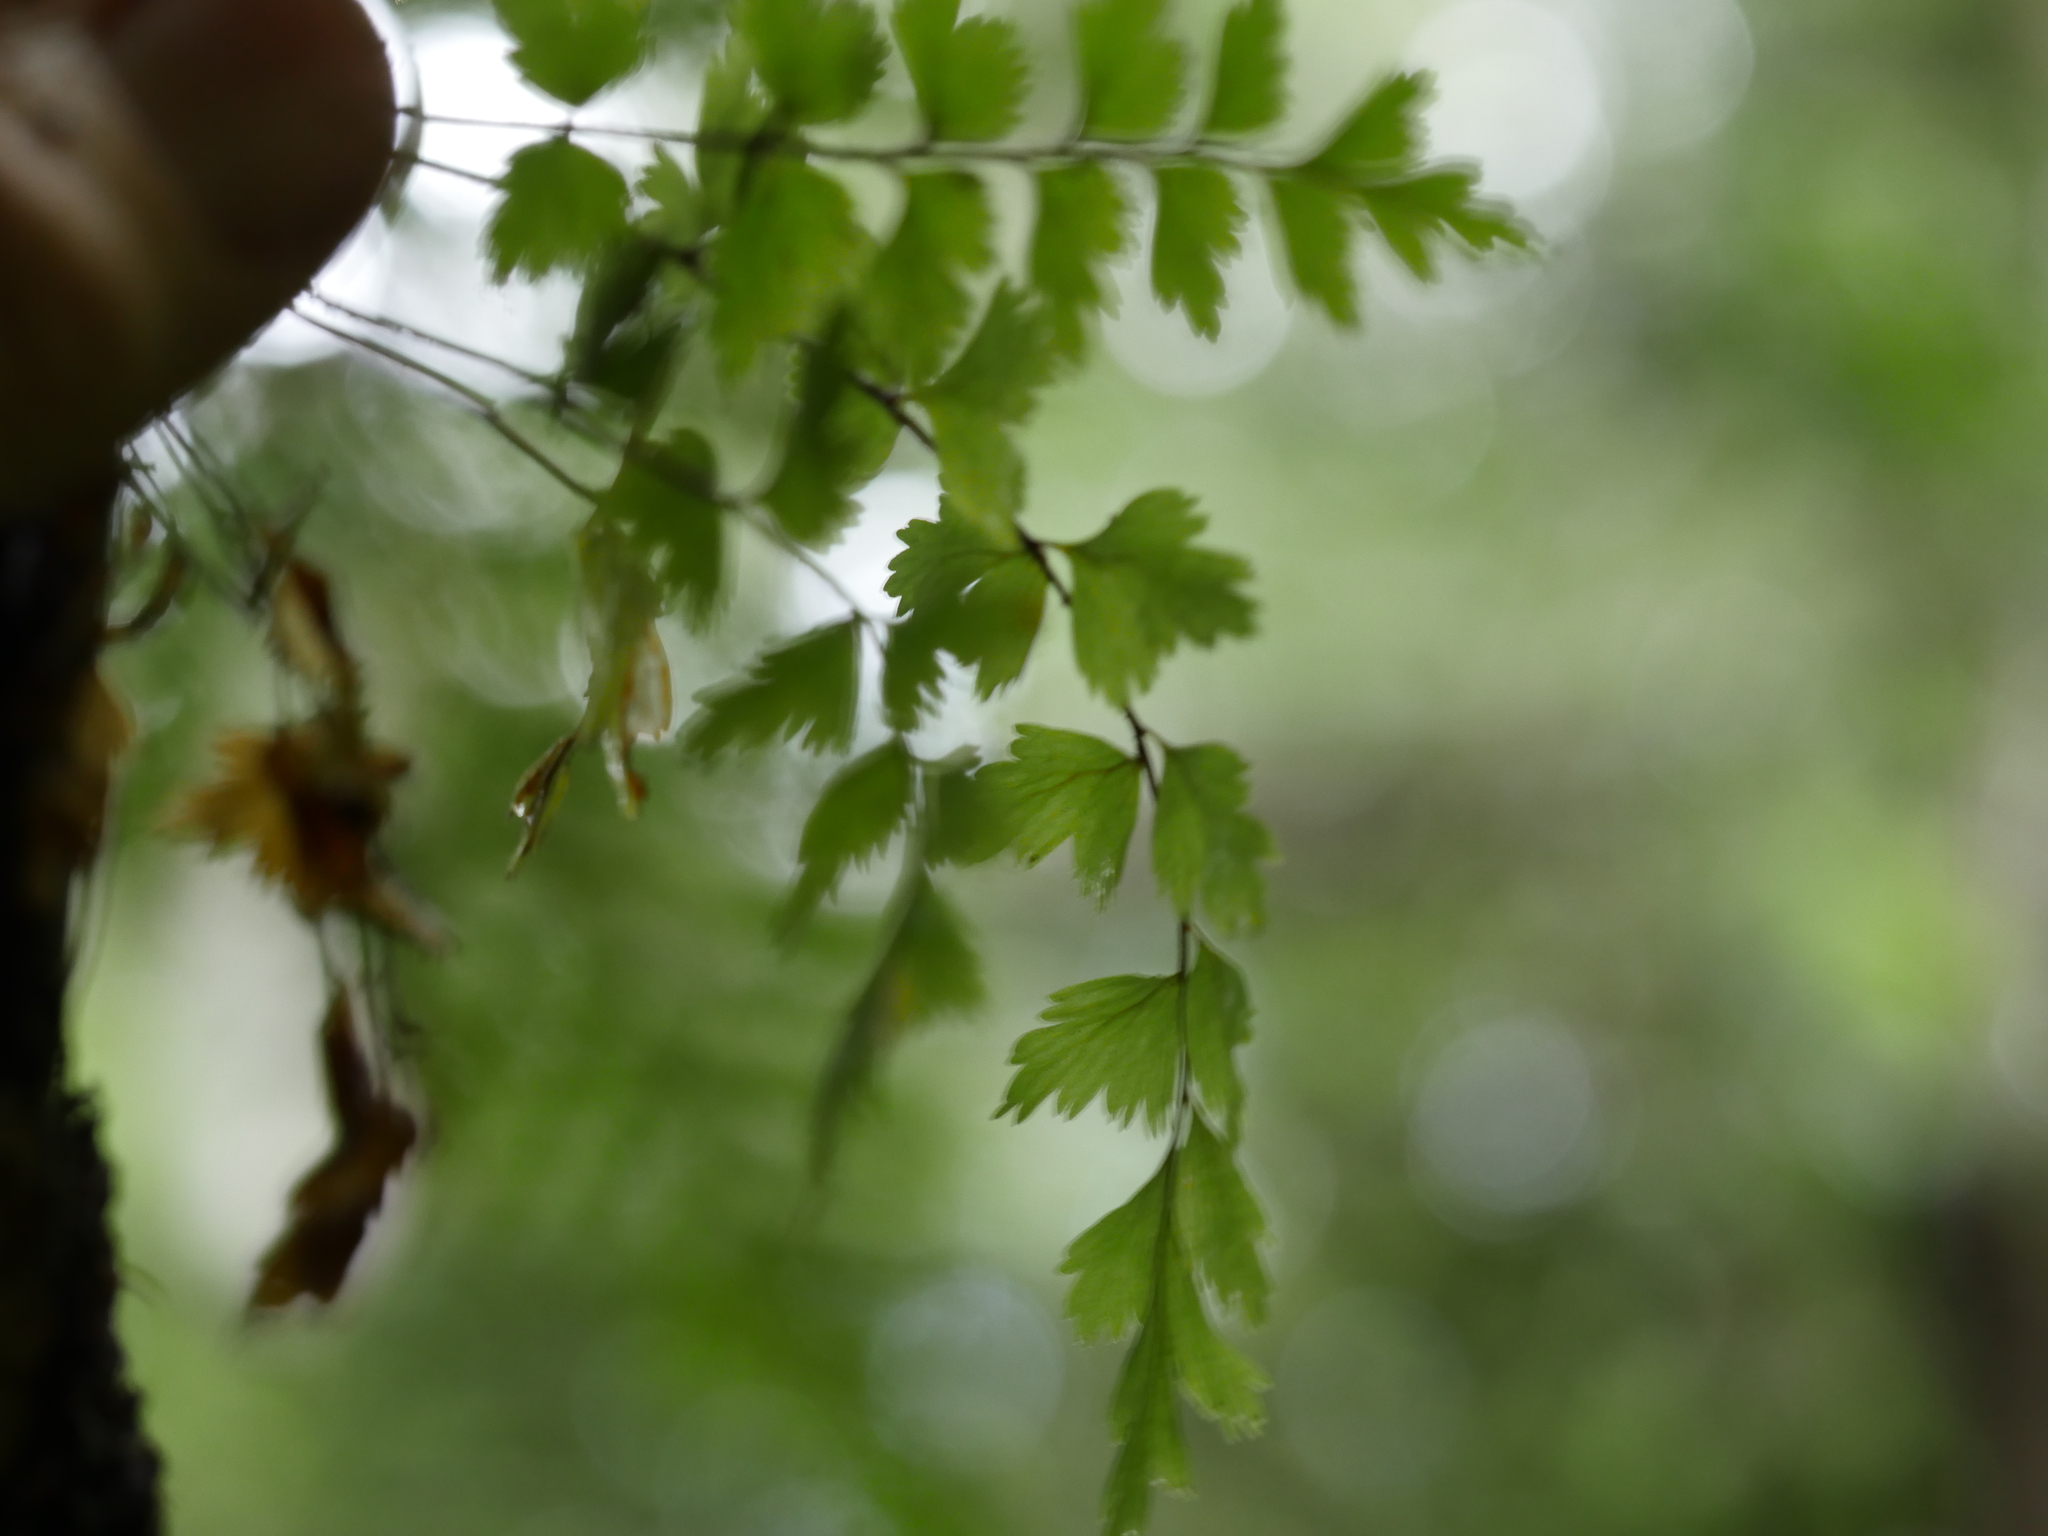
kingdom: Plantae
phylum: Tracheophyta
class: Polypodiopsida
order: Polypodiales
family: Aspleniaceae
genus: Asplenium
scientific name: Asplenium polyodon
